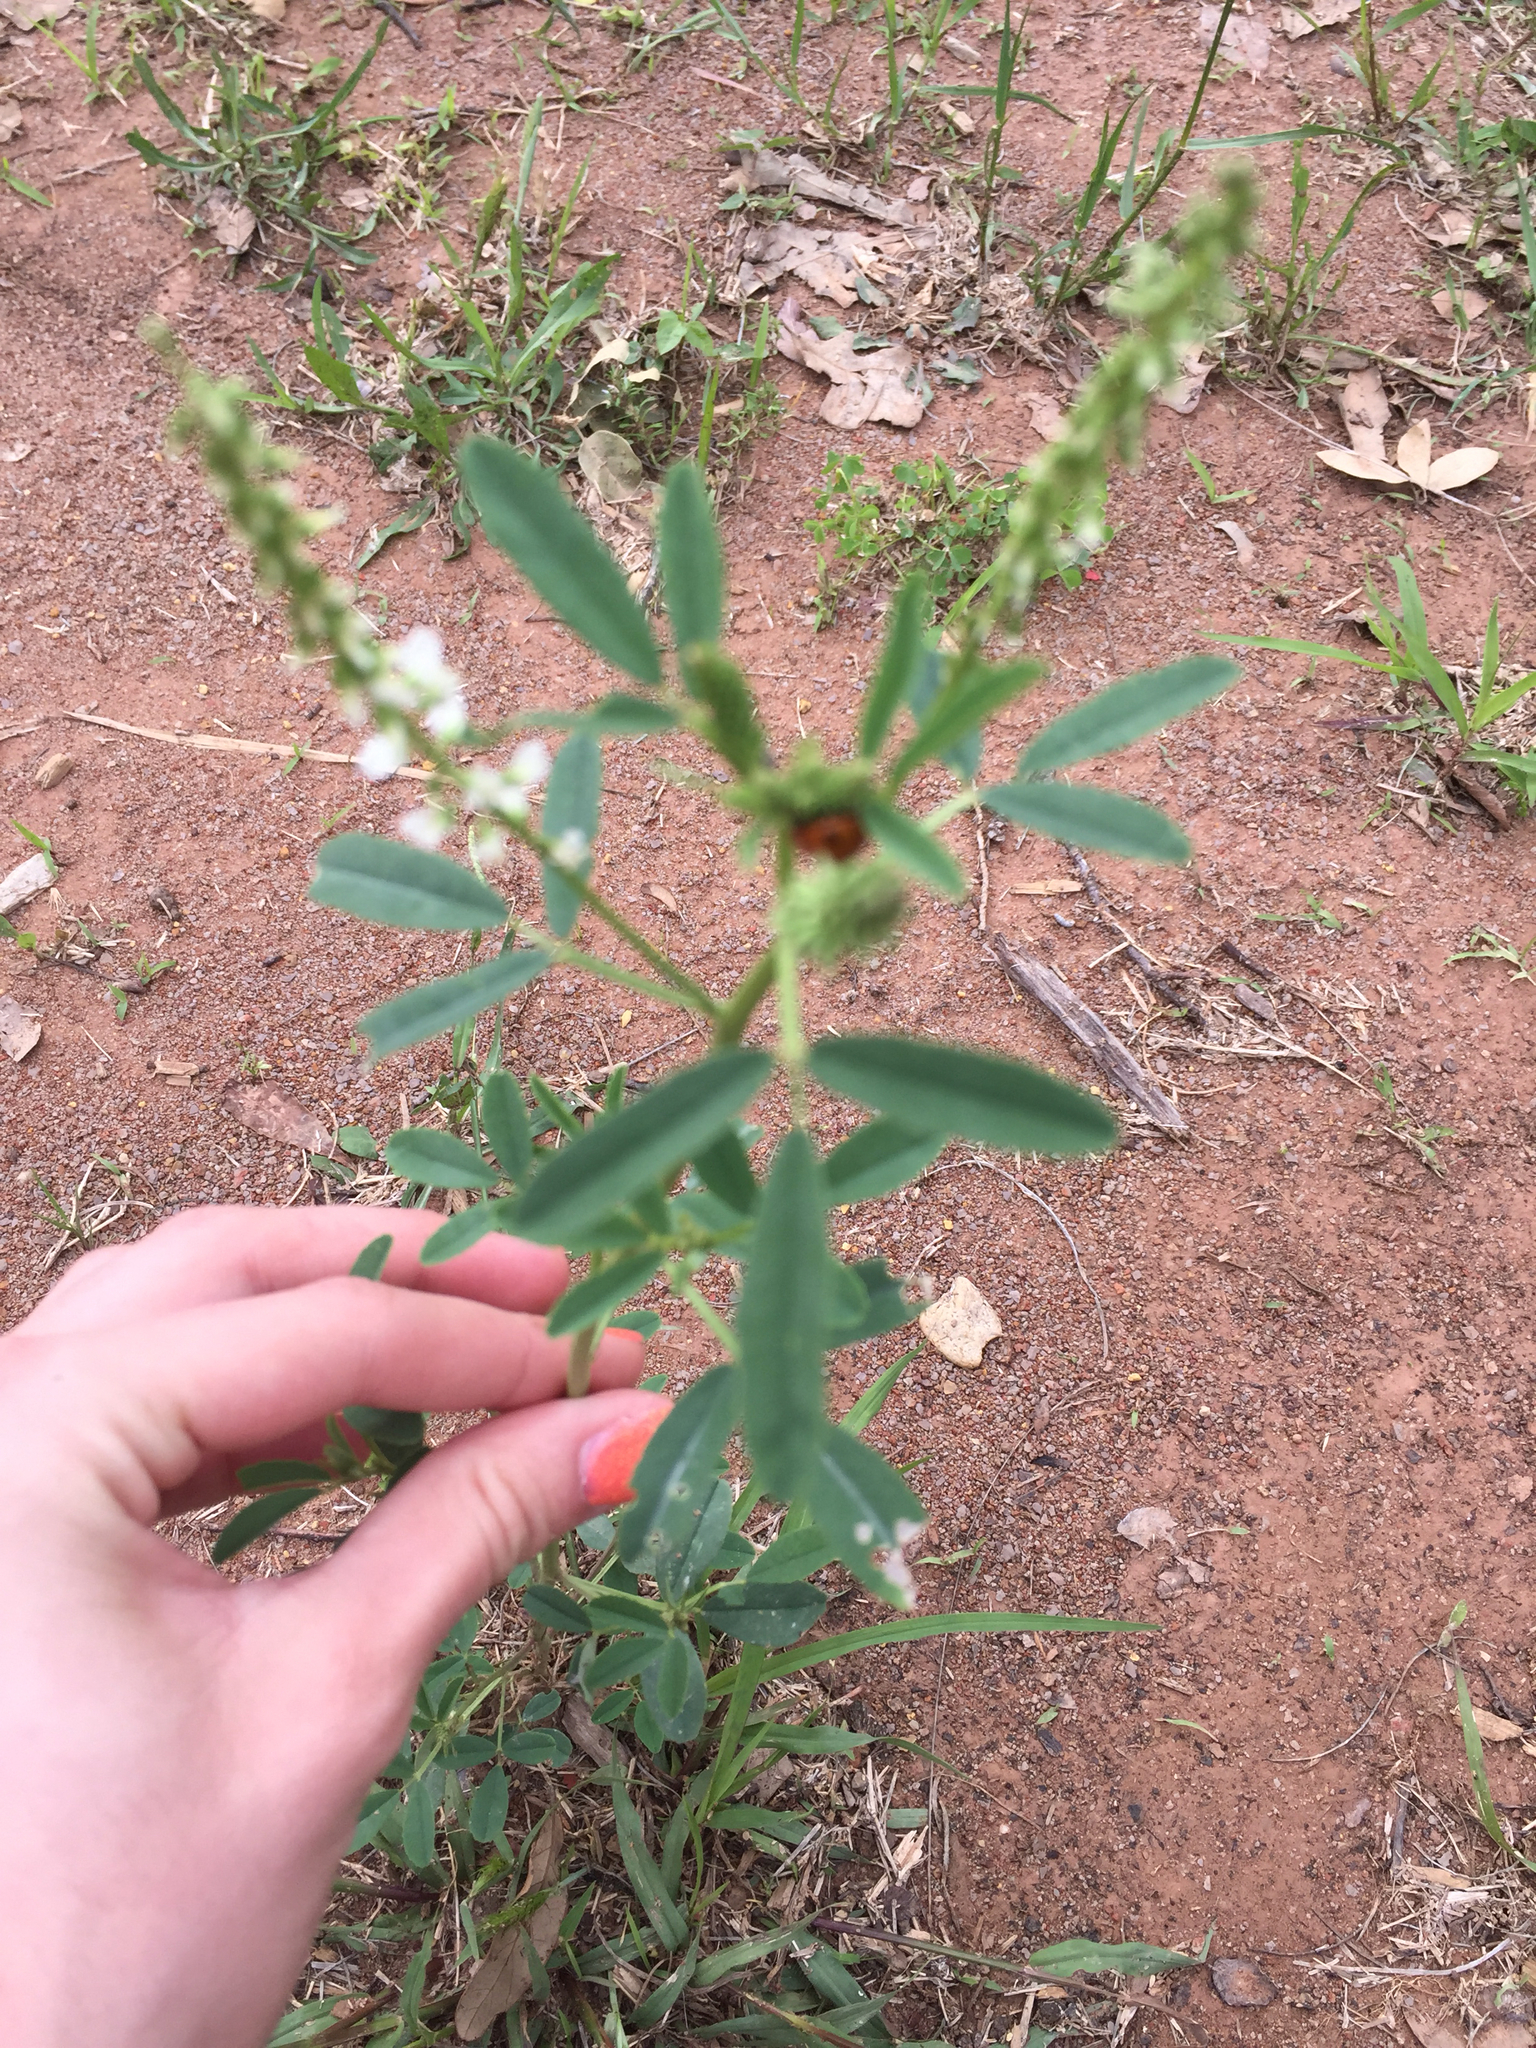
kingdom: Plantae
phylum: Tracheophyta
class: Magnoliopsida
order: Fabales
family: Fabaceae
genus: Melilotus
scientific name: Melilotus albus
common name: White melilot
